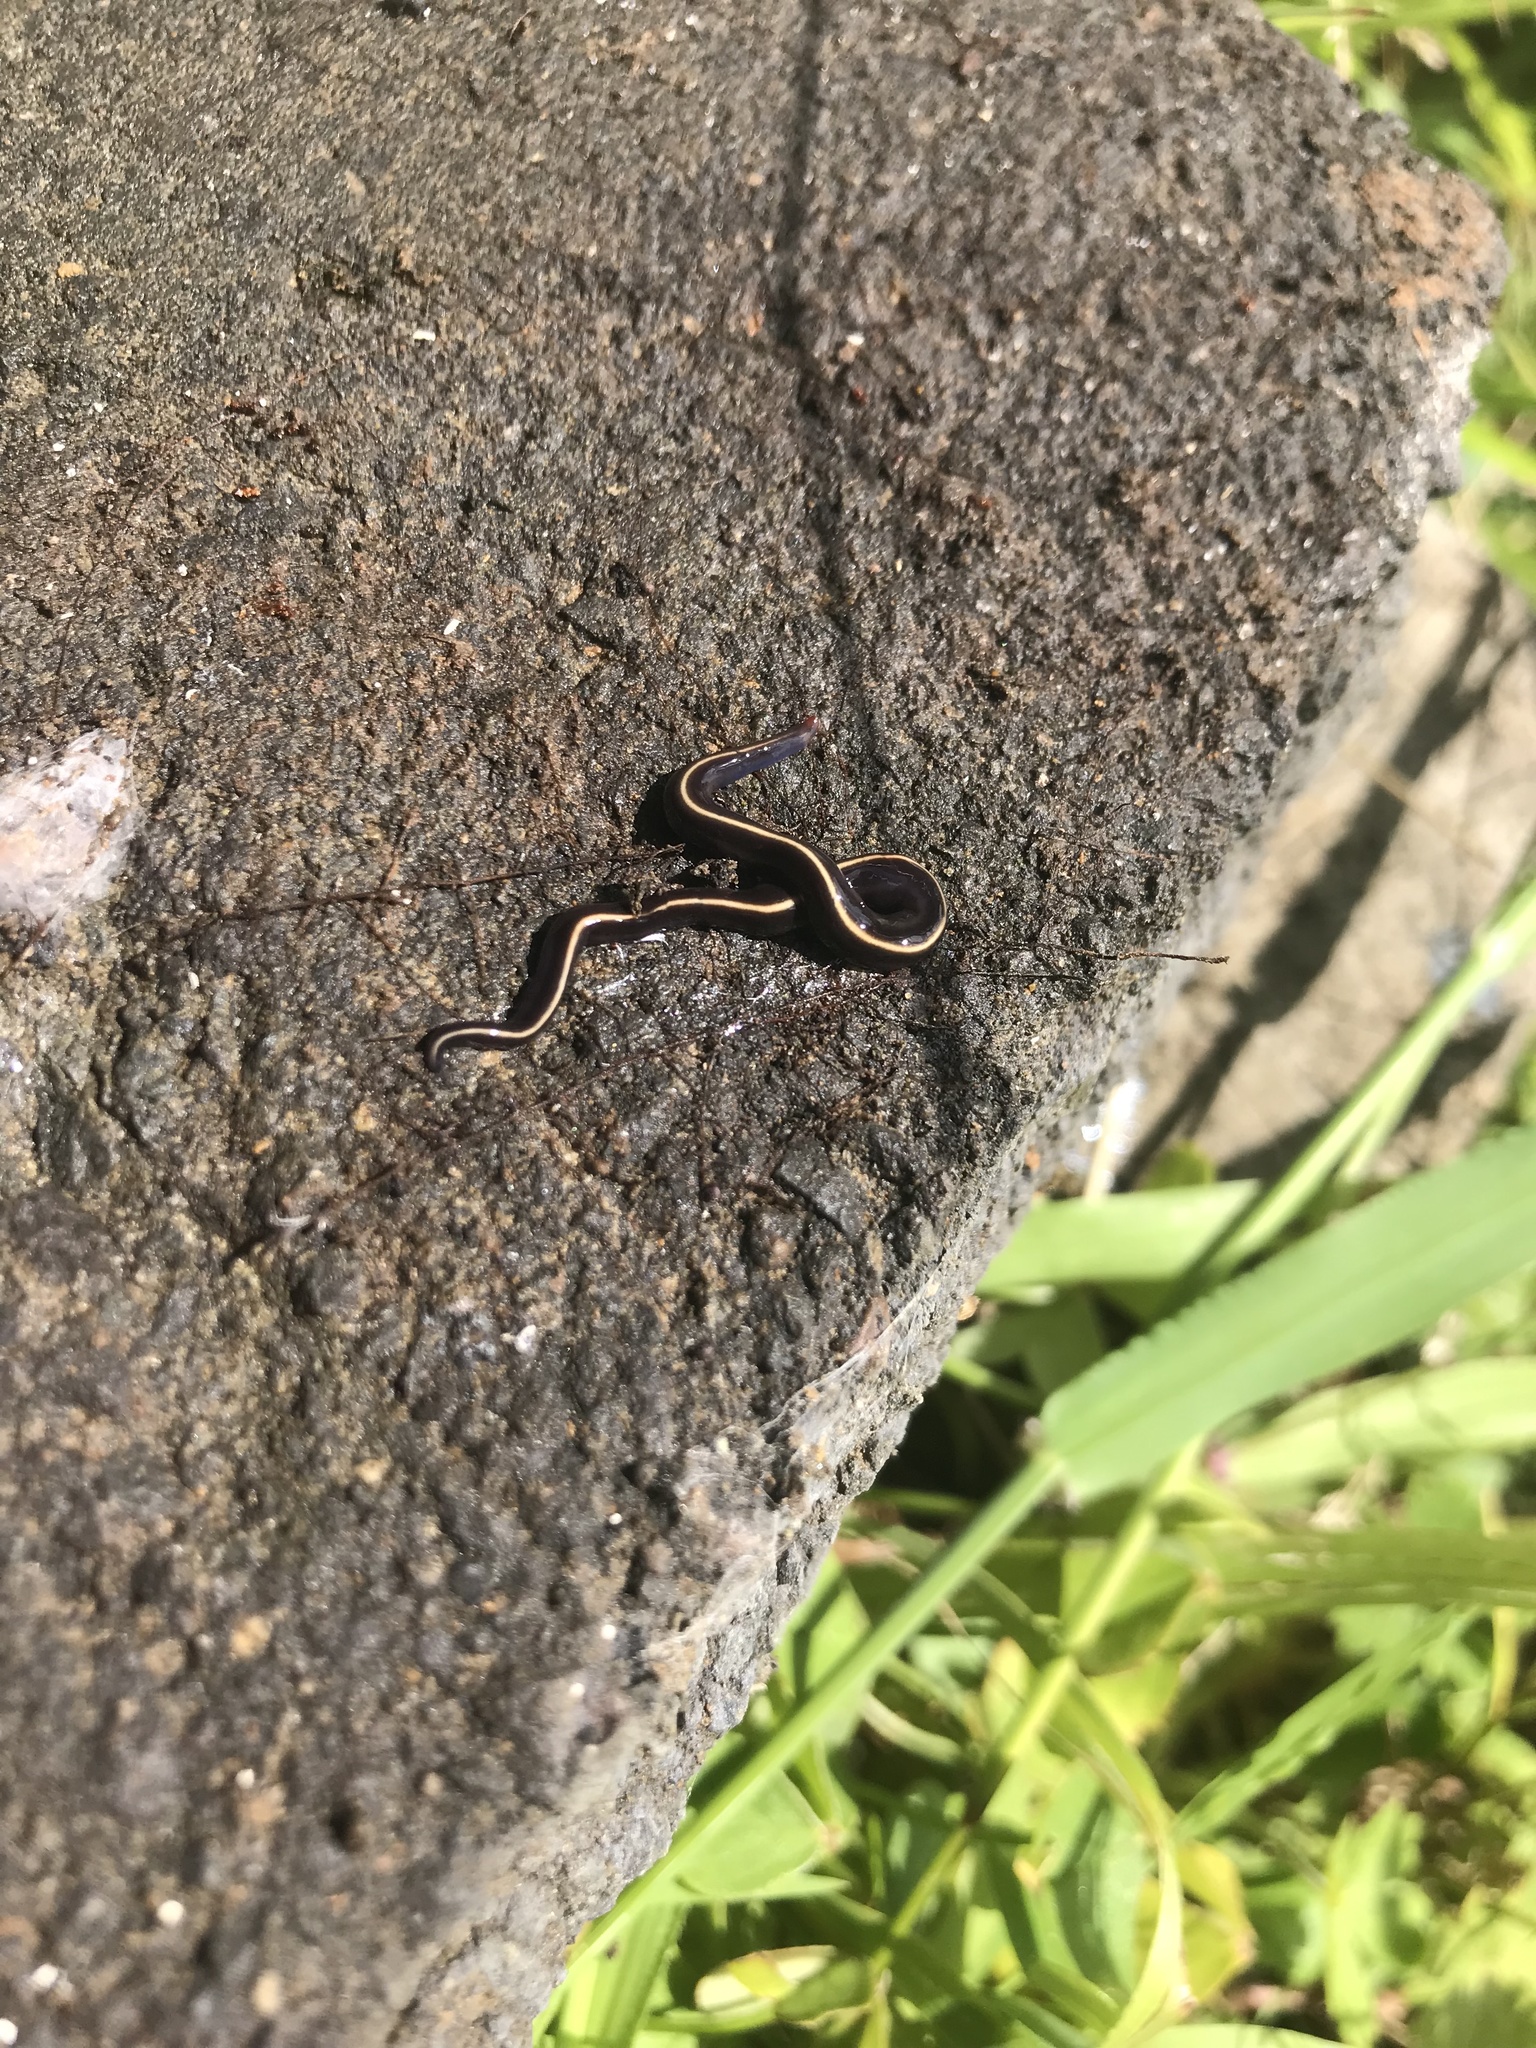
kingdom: Animalia
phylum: Platyhelminthes
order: Tricladida
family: Geoplanidae
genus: Caenoplana
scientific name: Caenoplana coerulea
